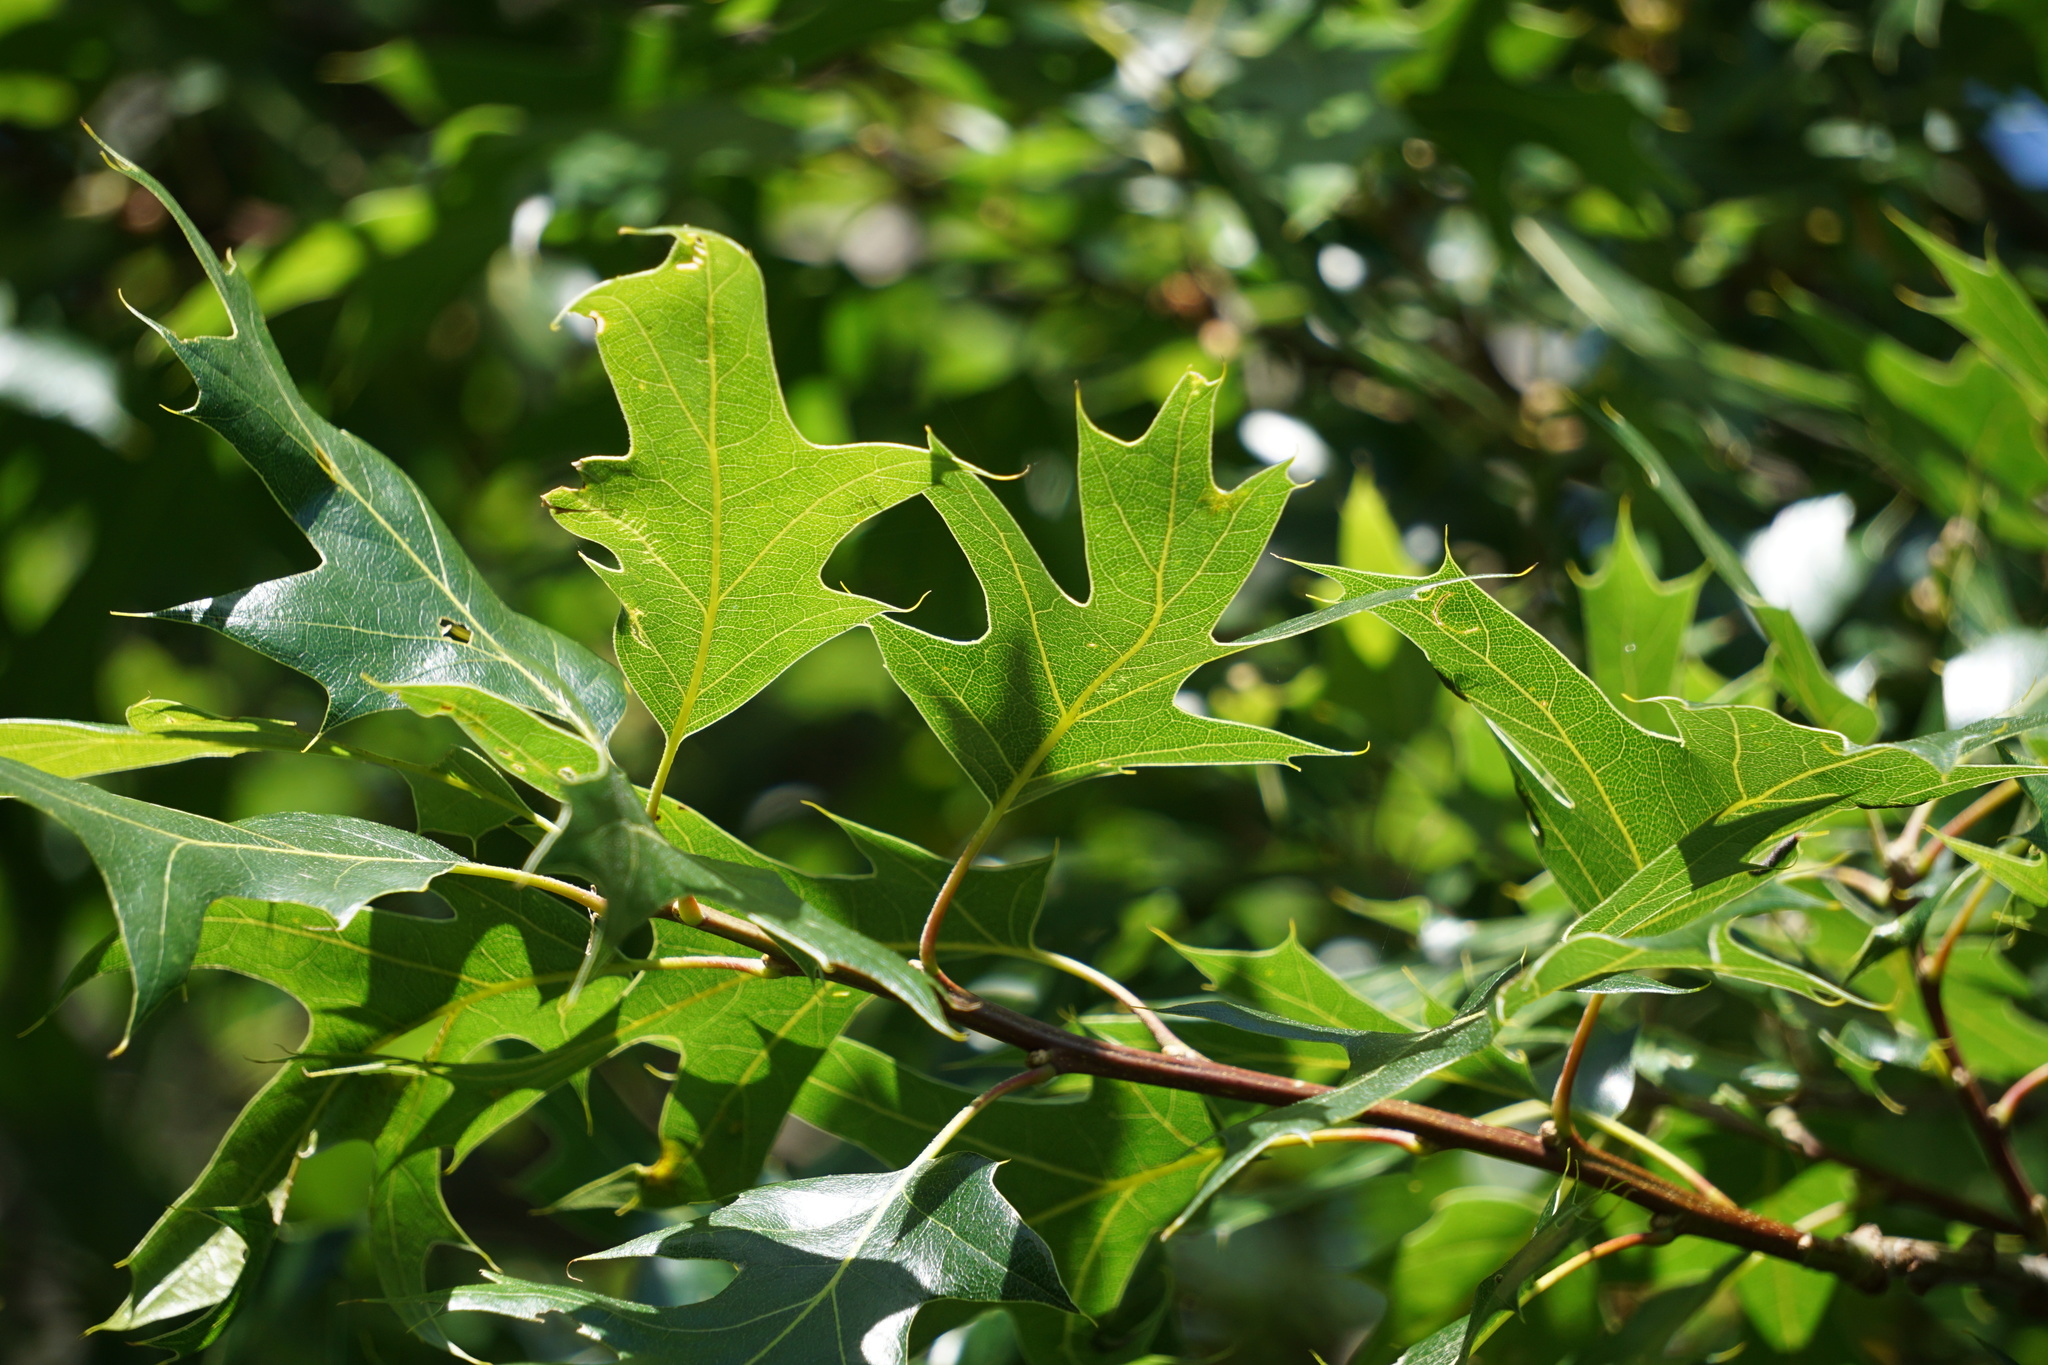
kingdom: Plantae
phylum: Tracheophyta
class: Magnoliopsida
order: Fagales
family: Fagaceae
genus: Quercus
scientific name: Quercus kelloggii
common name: California black oak
